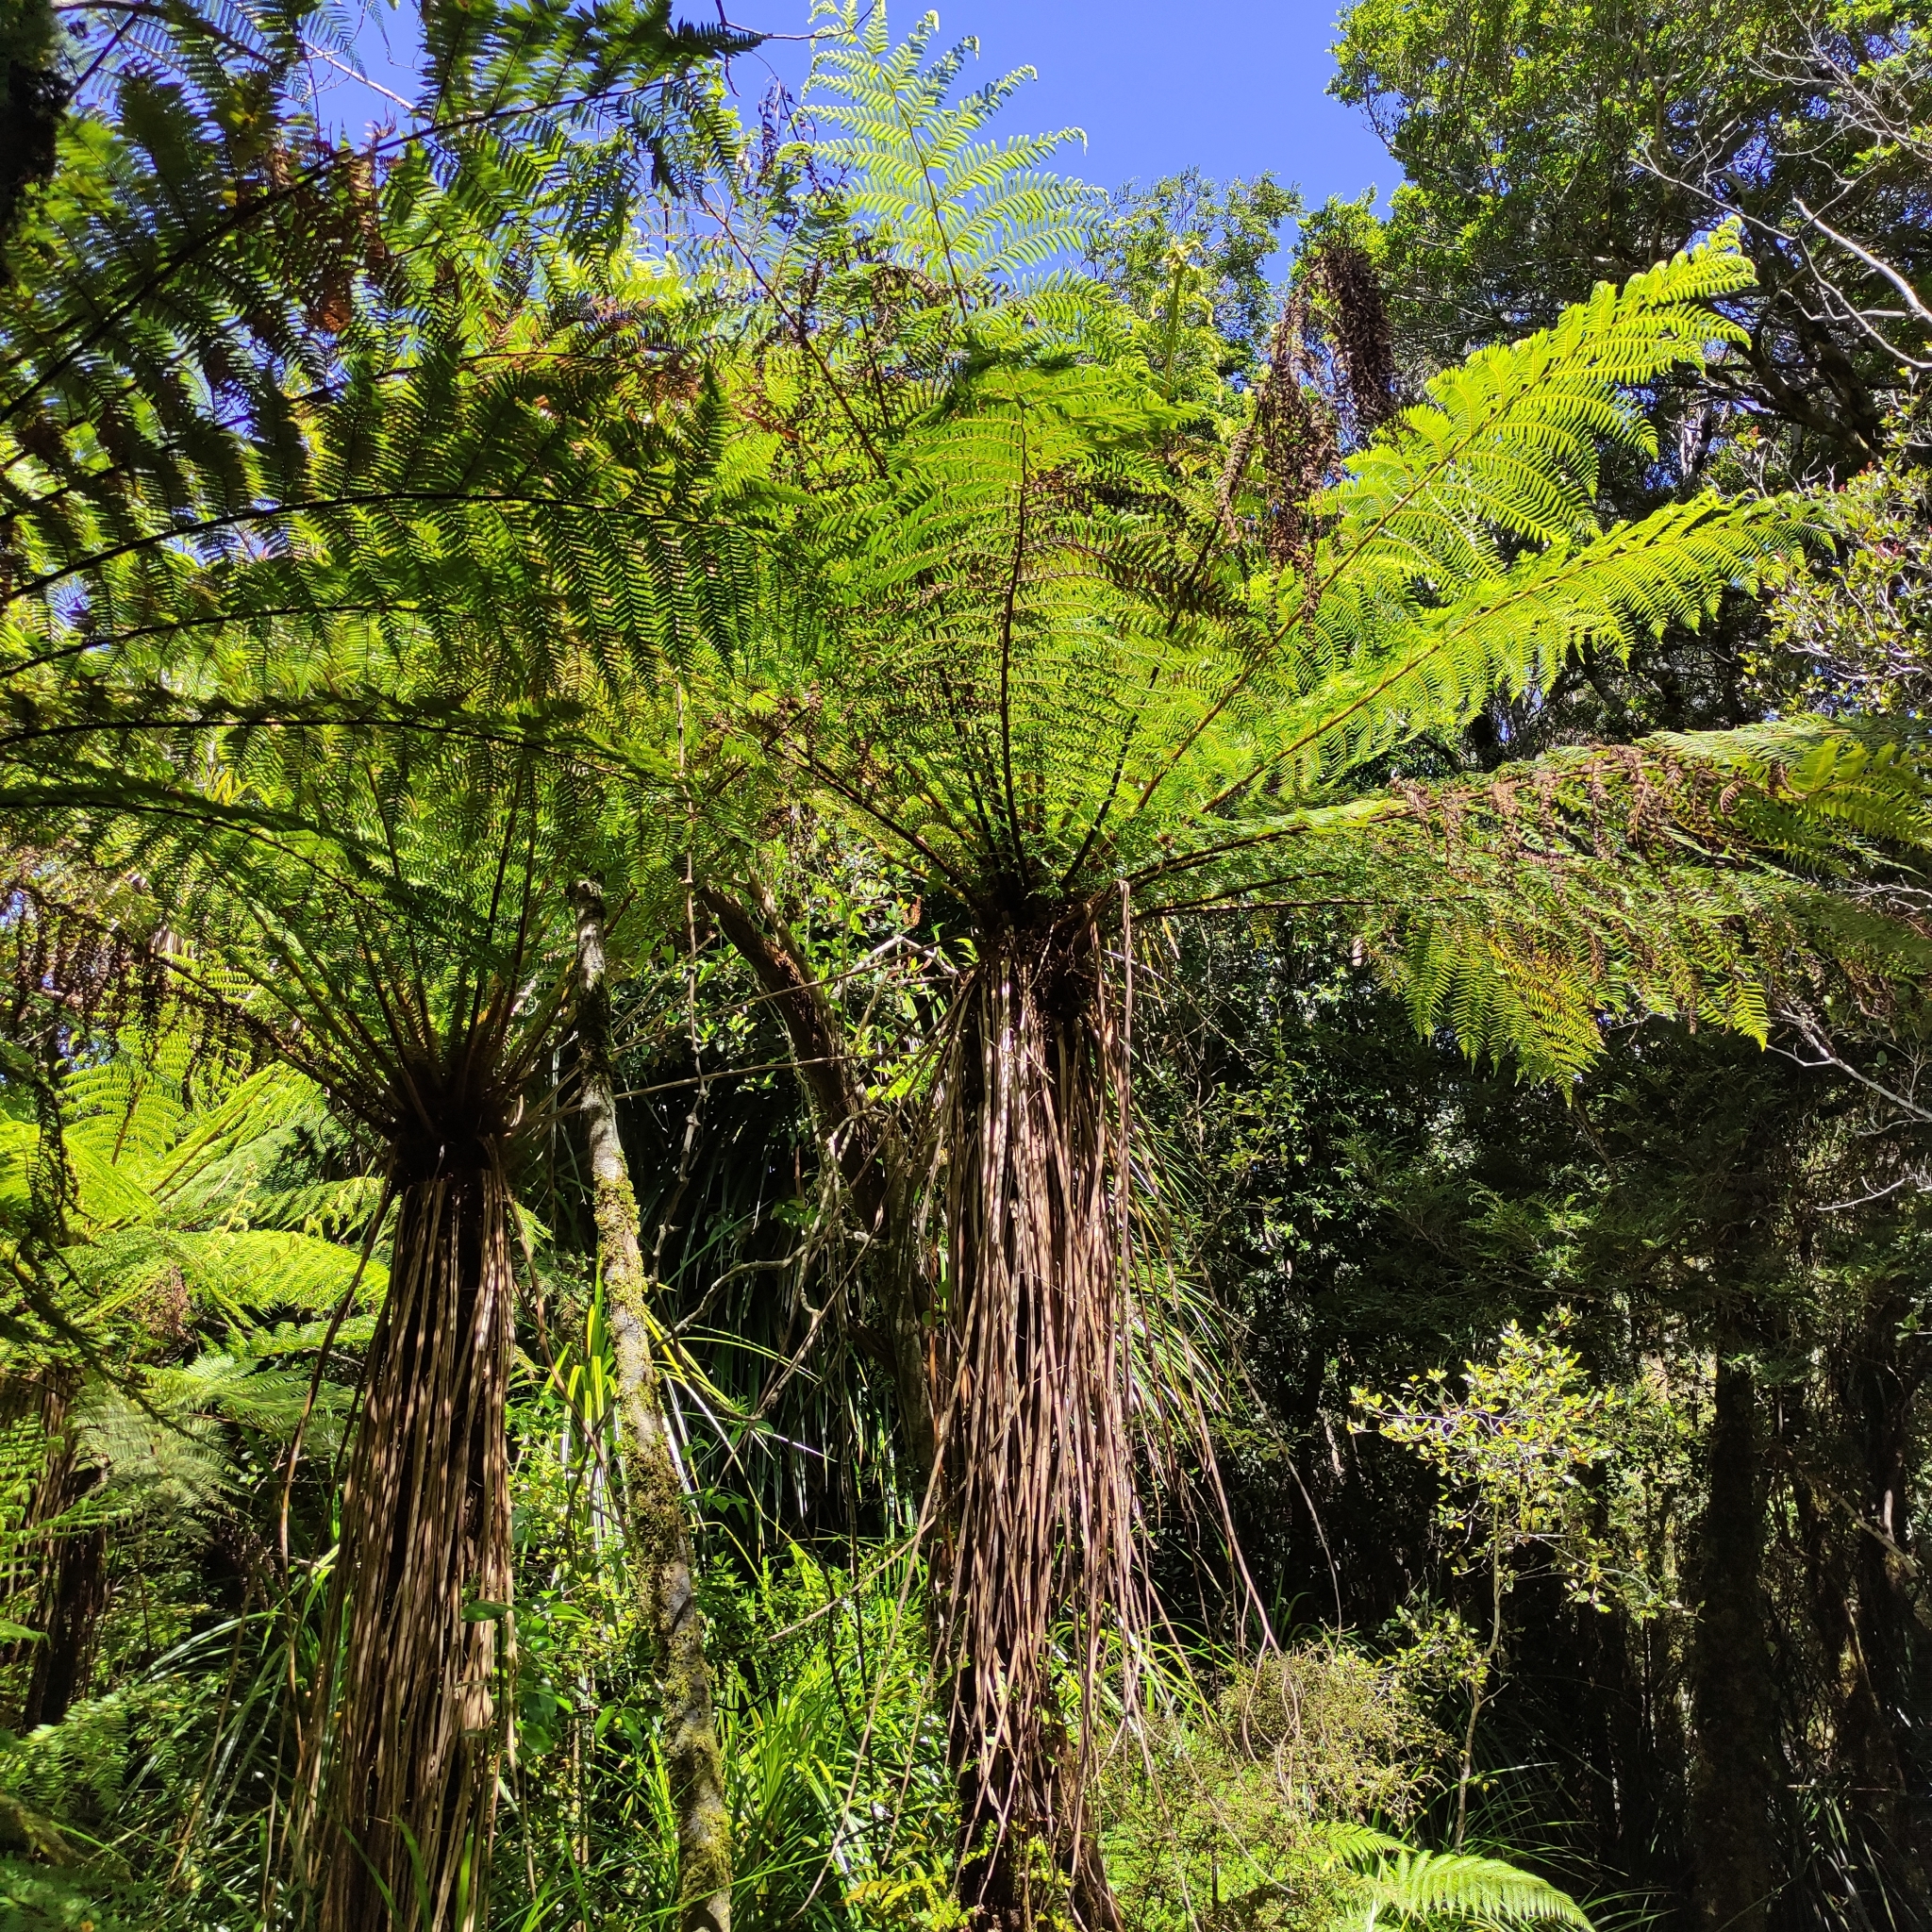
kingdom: Plantae
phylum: Tracheophyta
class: Polypodiopsida
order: Cyatheales
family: Cyatheaceae
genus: Alsophila
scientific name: Alsophila smithii
